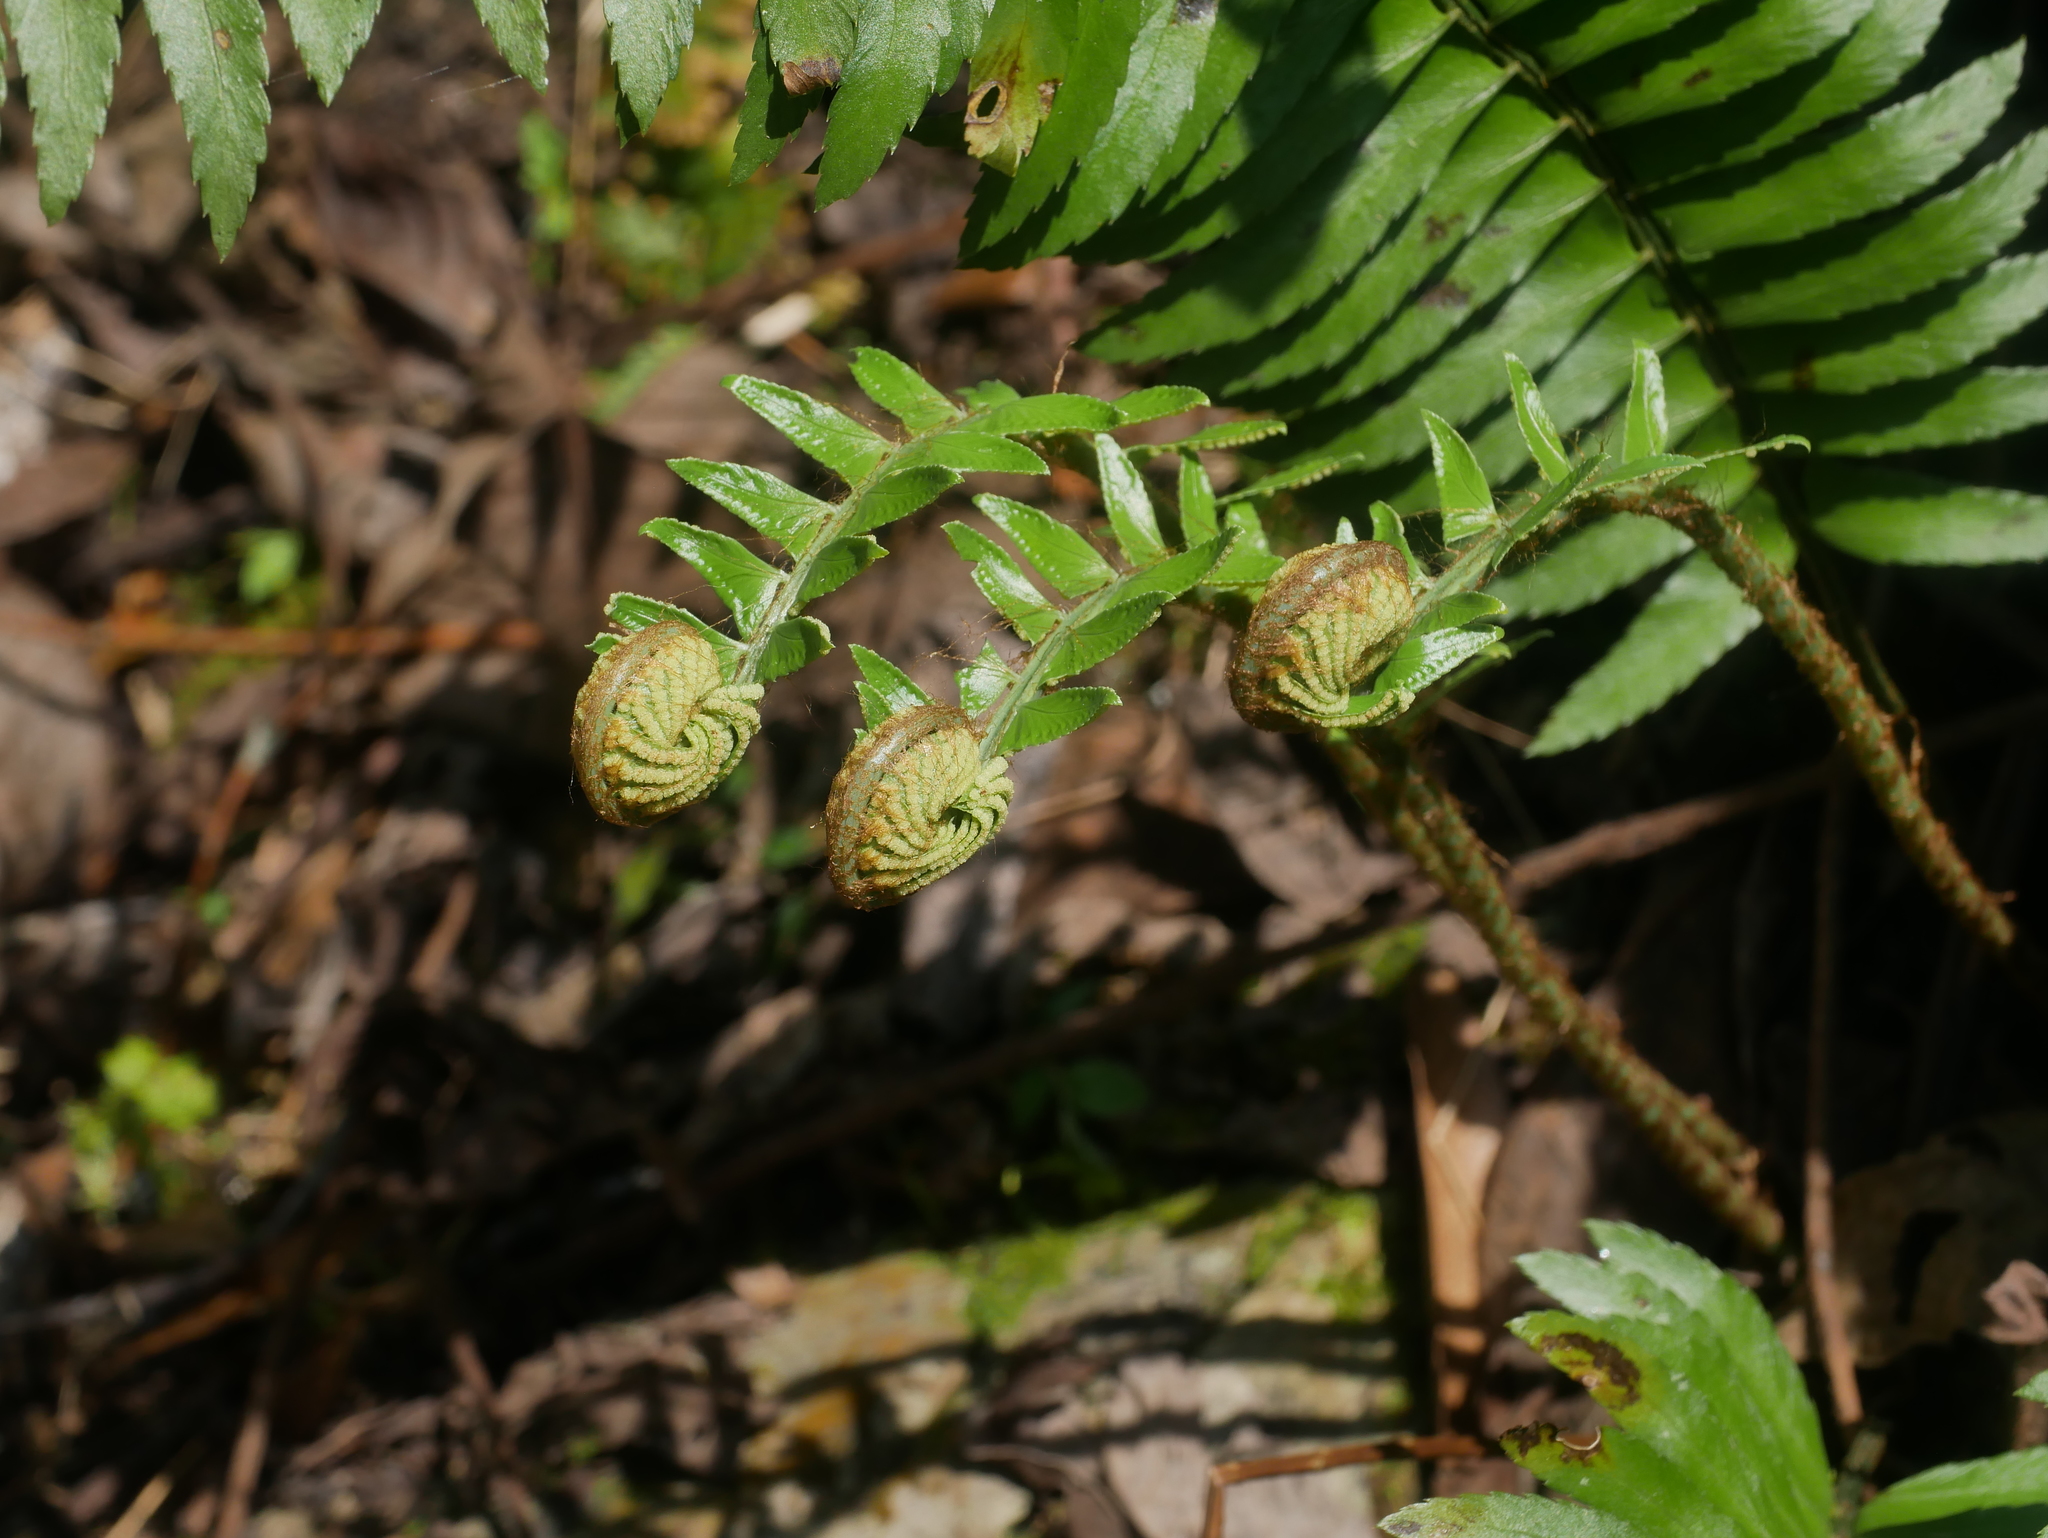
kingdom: Plantae
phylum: Tracheophyta
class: Polypodiopsida
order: Polypodiales
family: Dryopteridaceae
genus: Polystichum
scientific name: Polystichum acutidens
